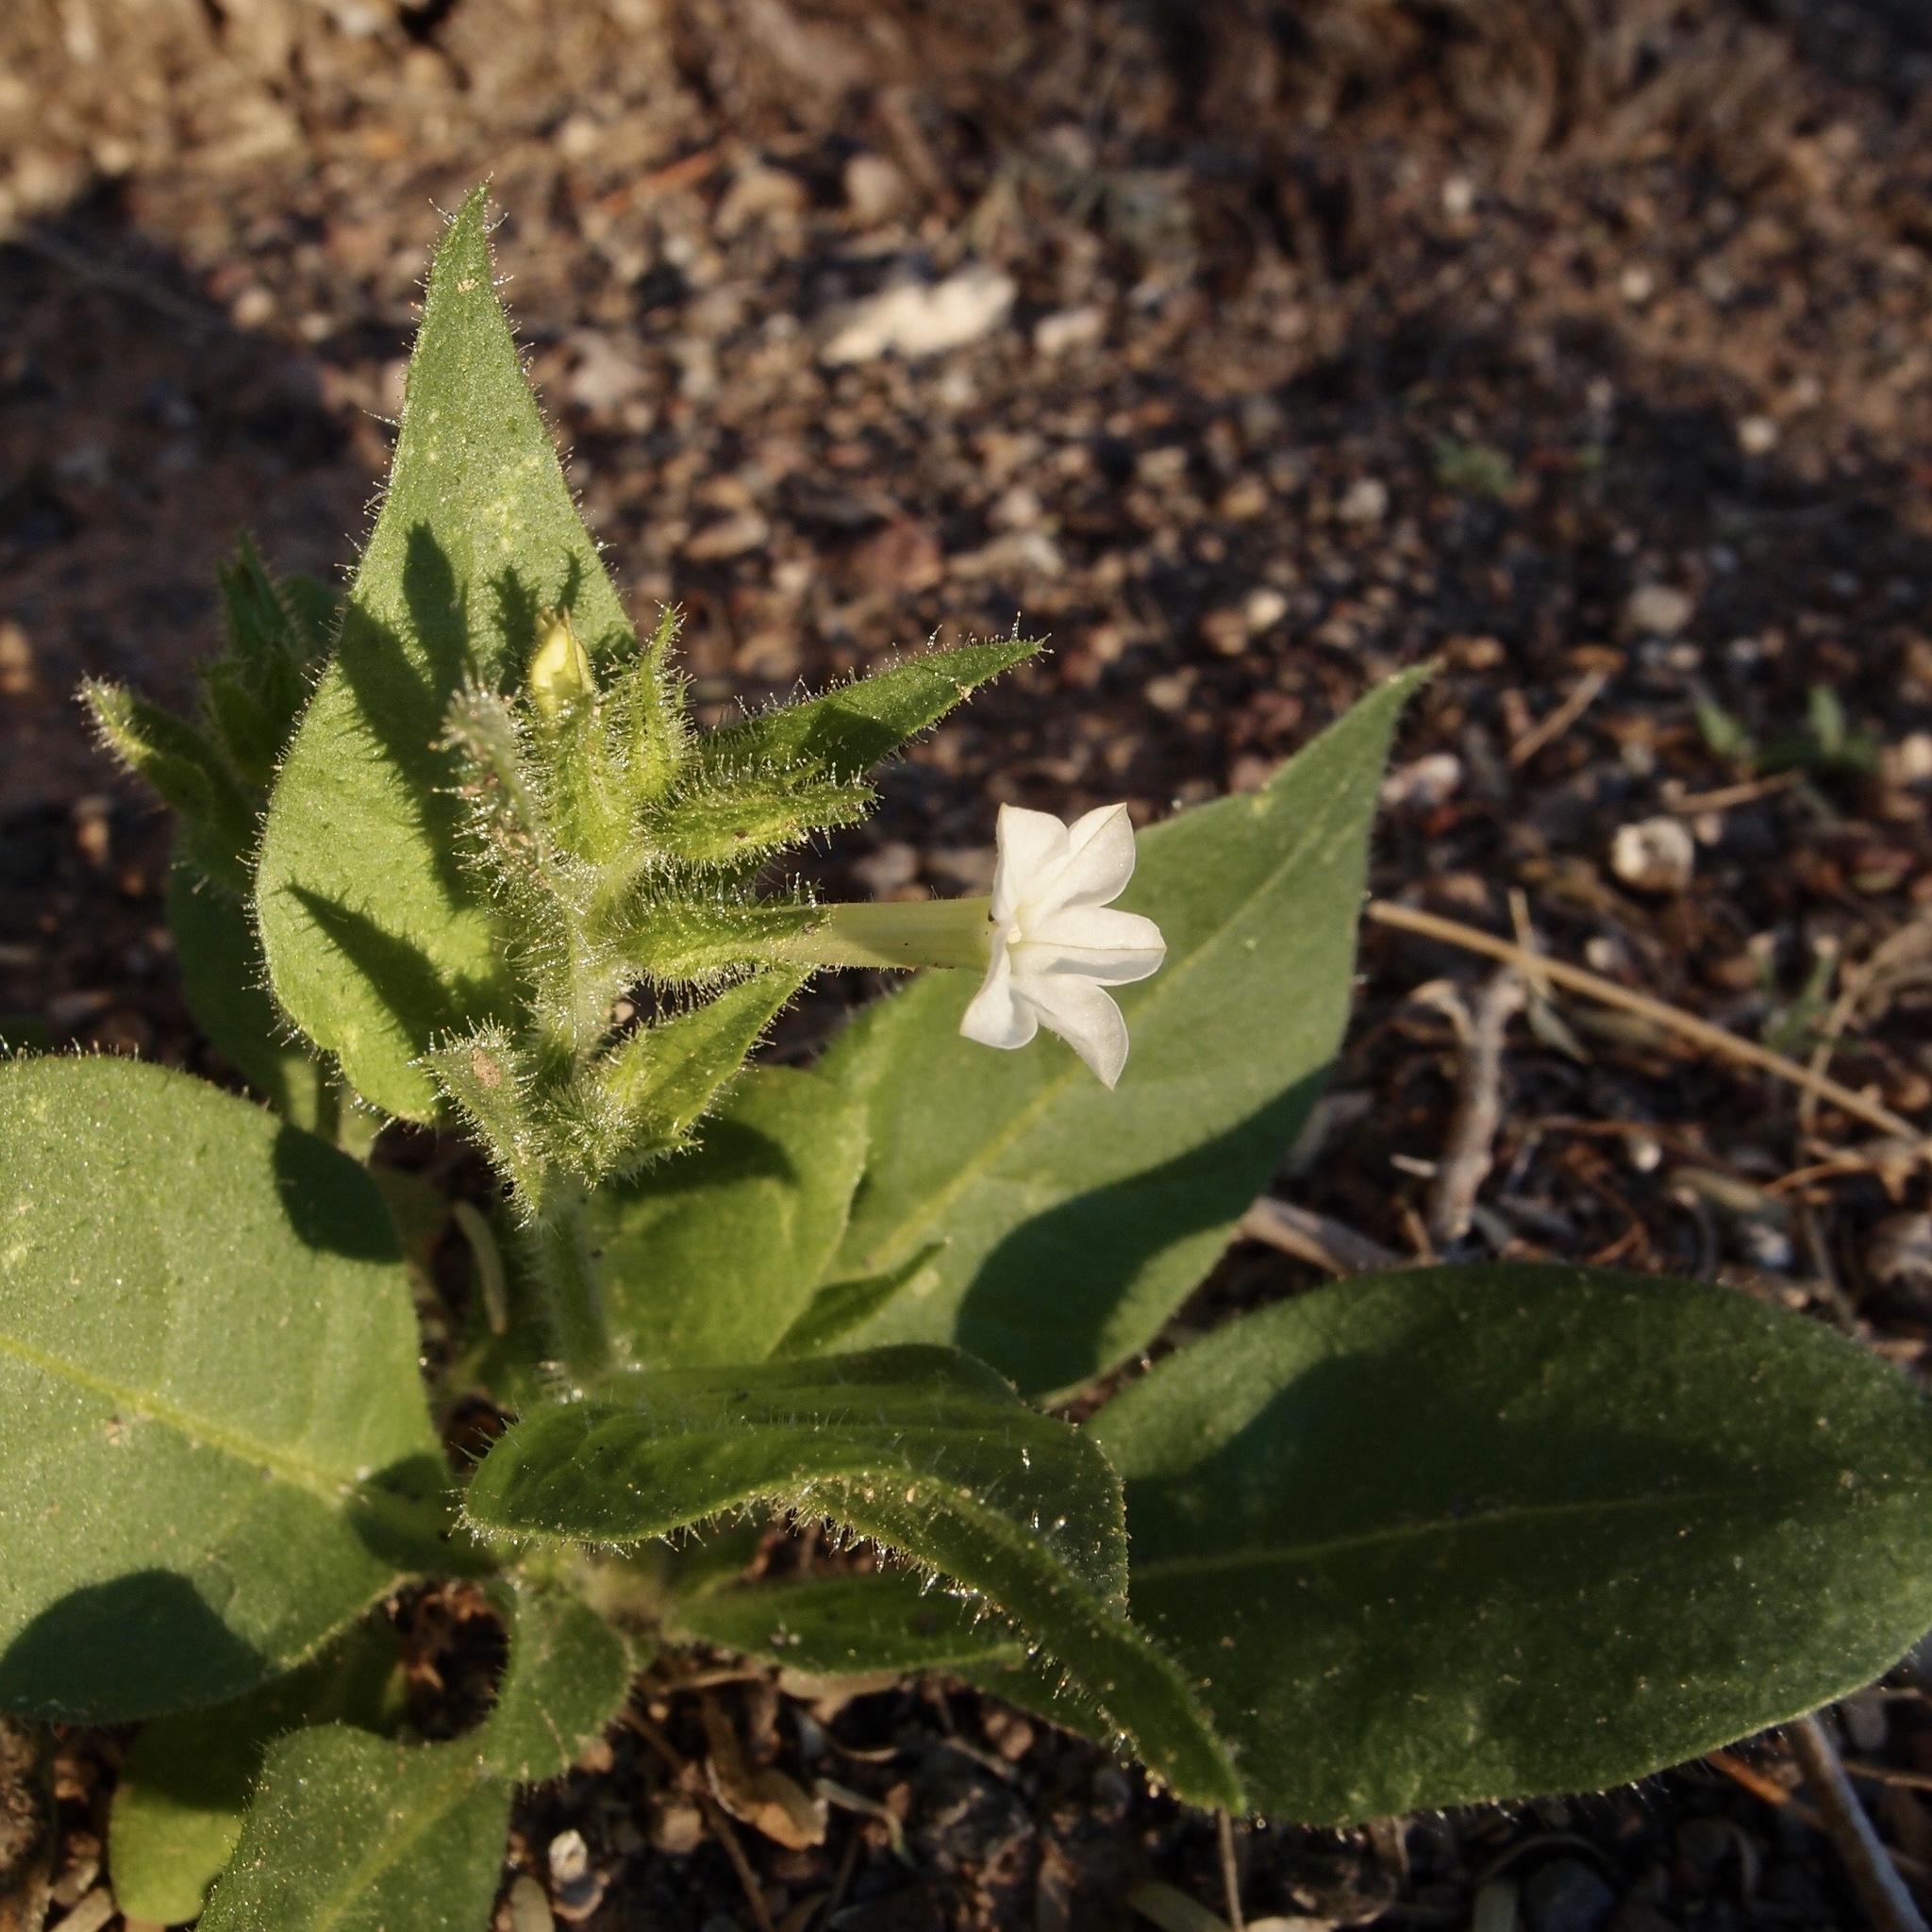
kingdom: Plantae
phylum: Tracheophyta
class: Magnoliopsida
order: Solanales
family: Solanaceae
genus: Nicotiana
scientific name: Nicotiana clevelandii
